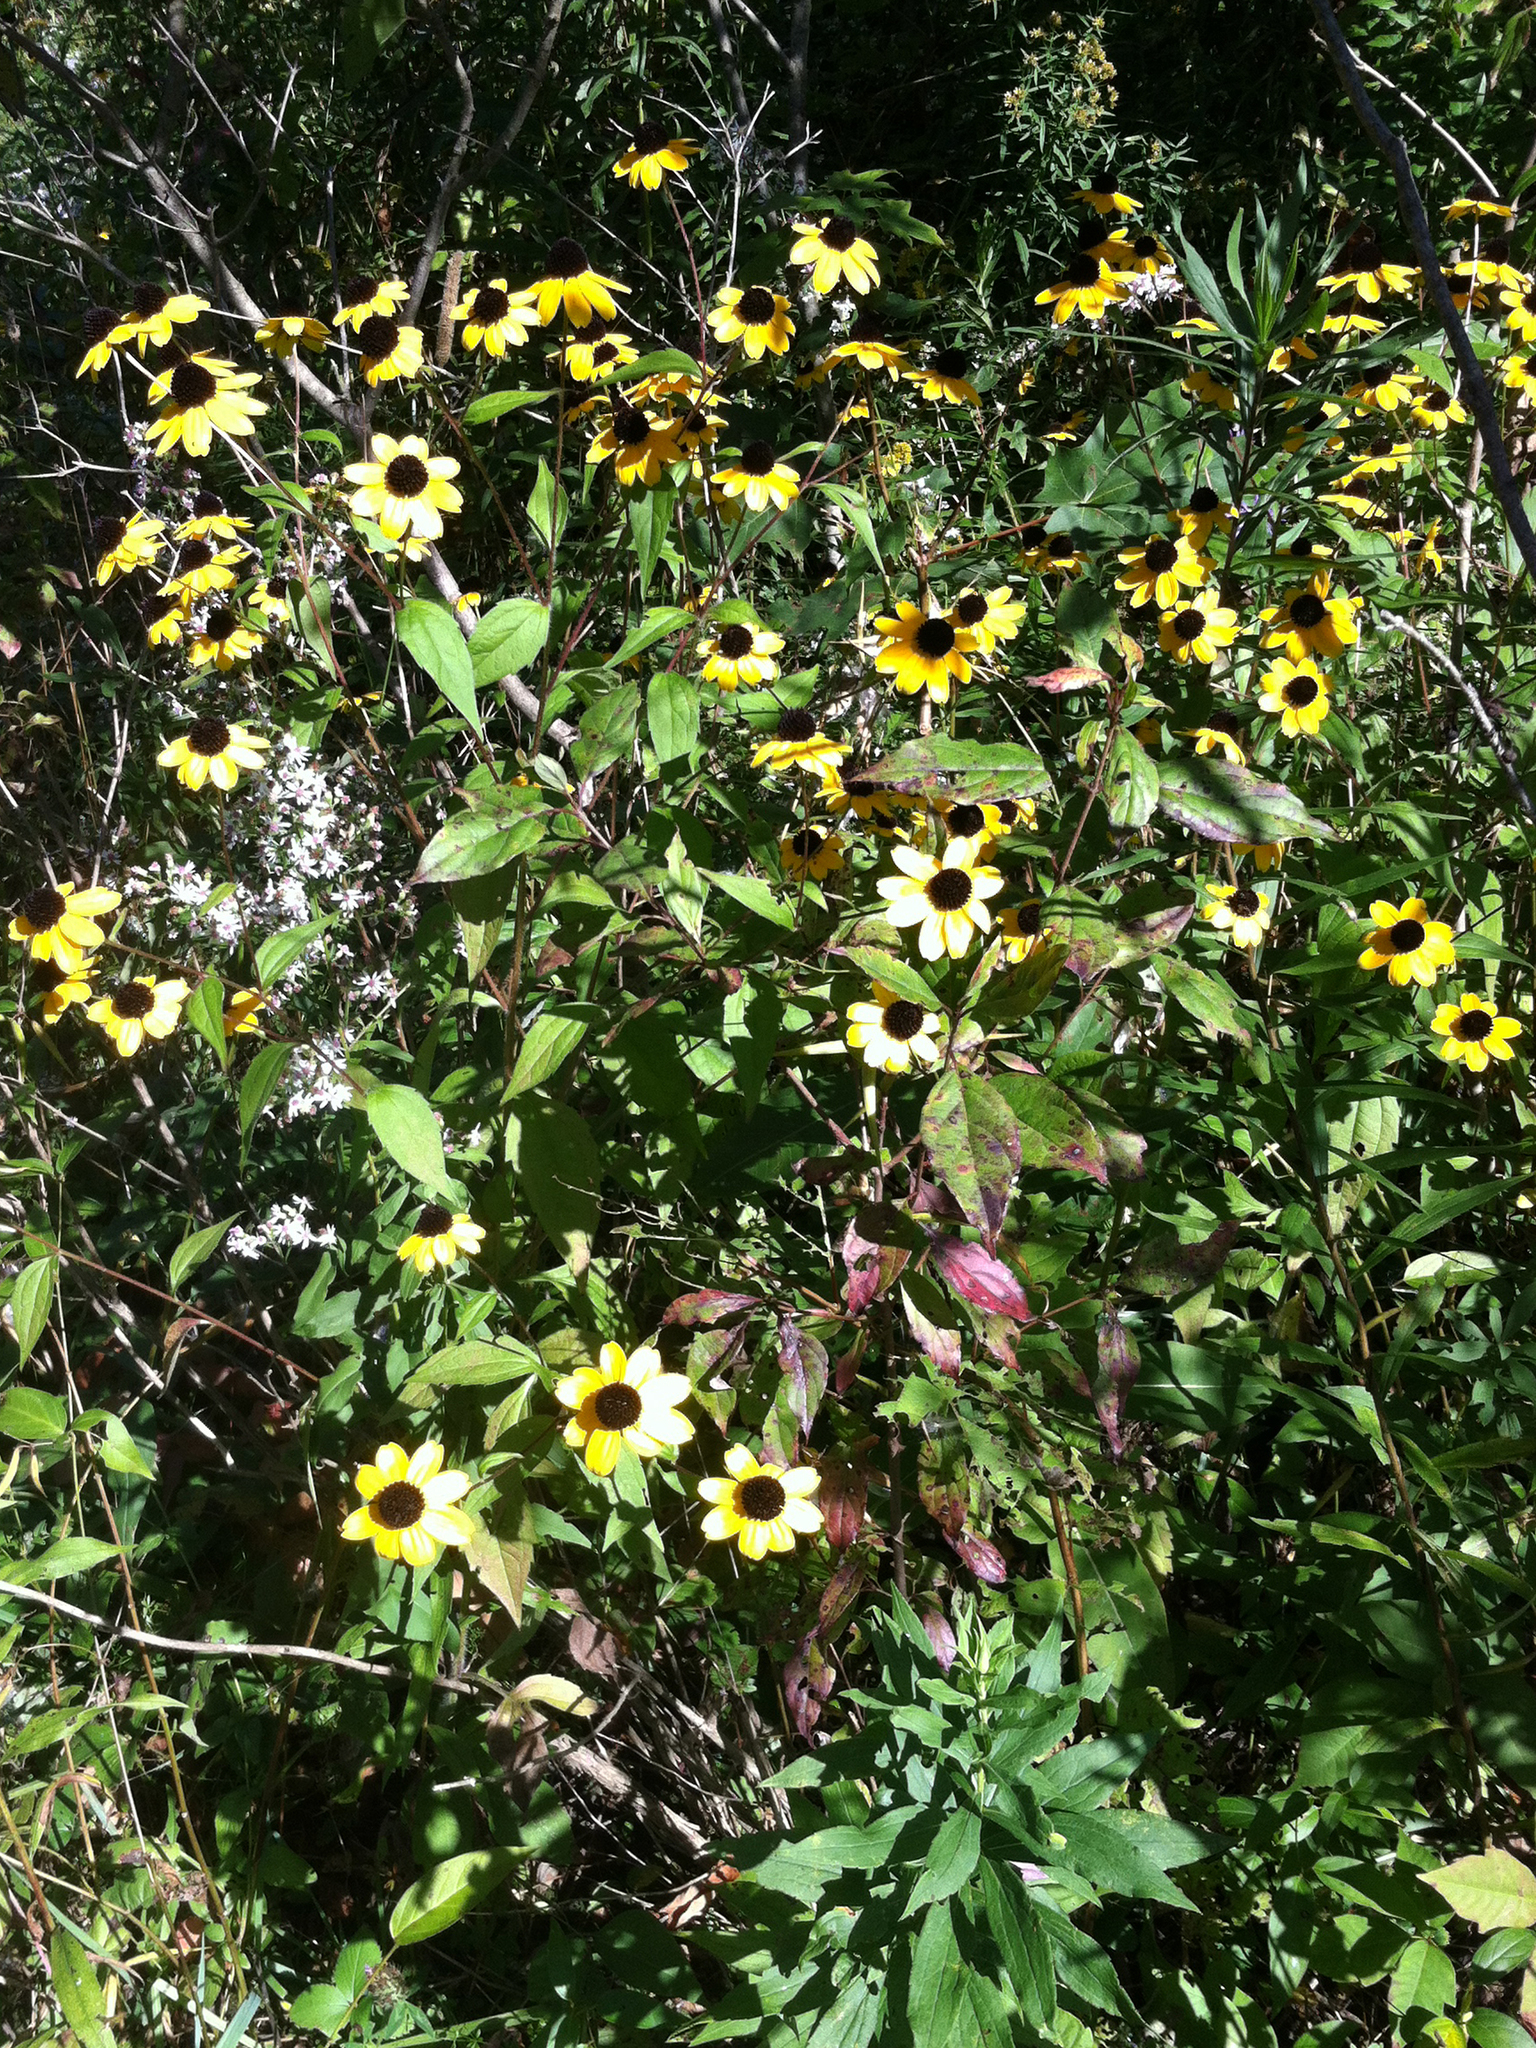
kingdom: Plantae
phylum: Tracheophyta
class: Magnoliopsida
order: Asterales
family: Asteraceae
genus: Rudbeckia
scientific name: Rudbeckia triloba
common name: Thin-leaved coneflower
